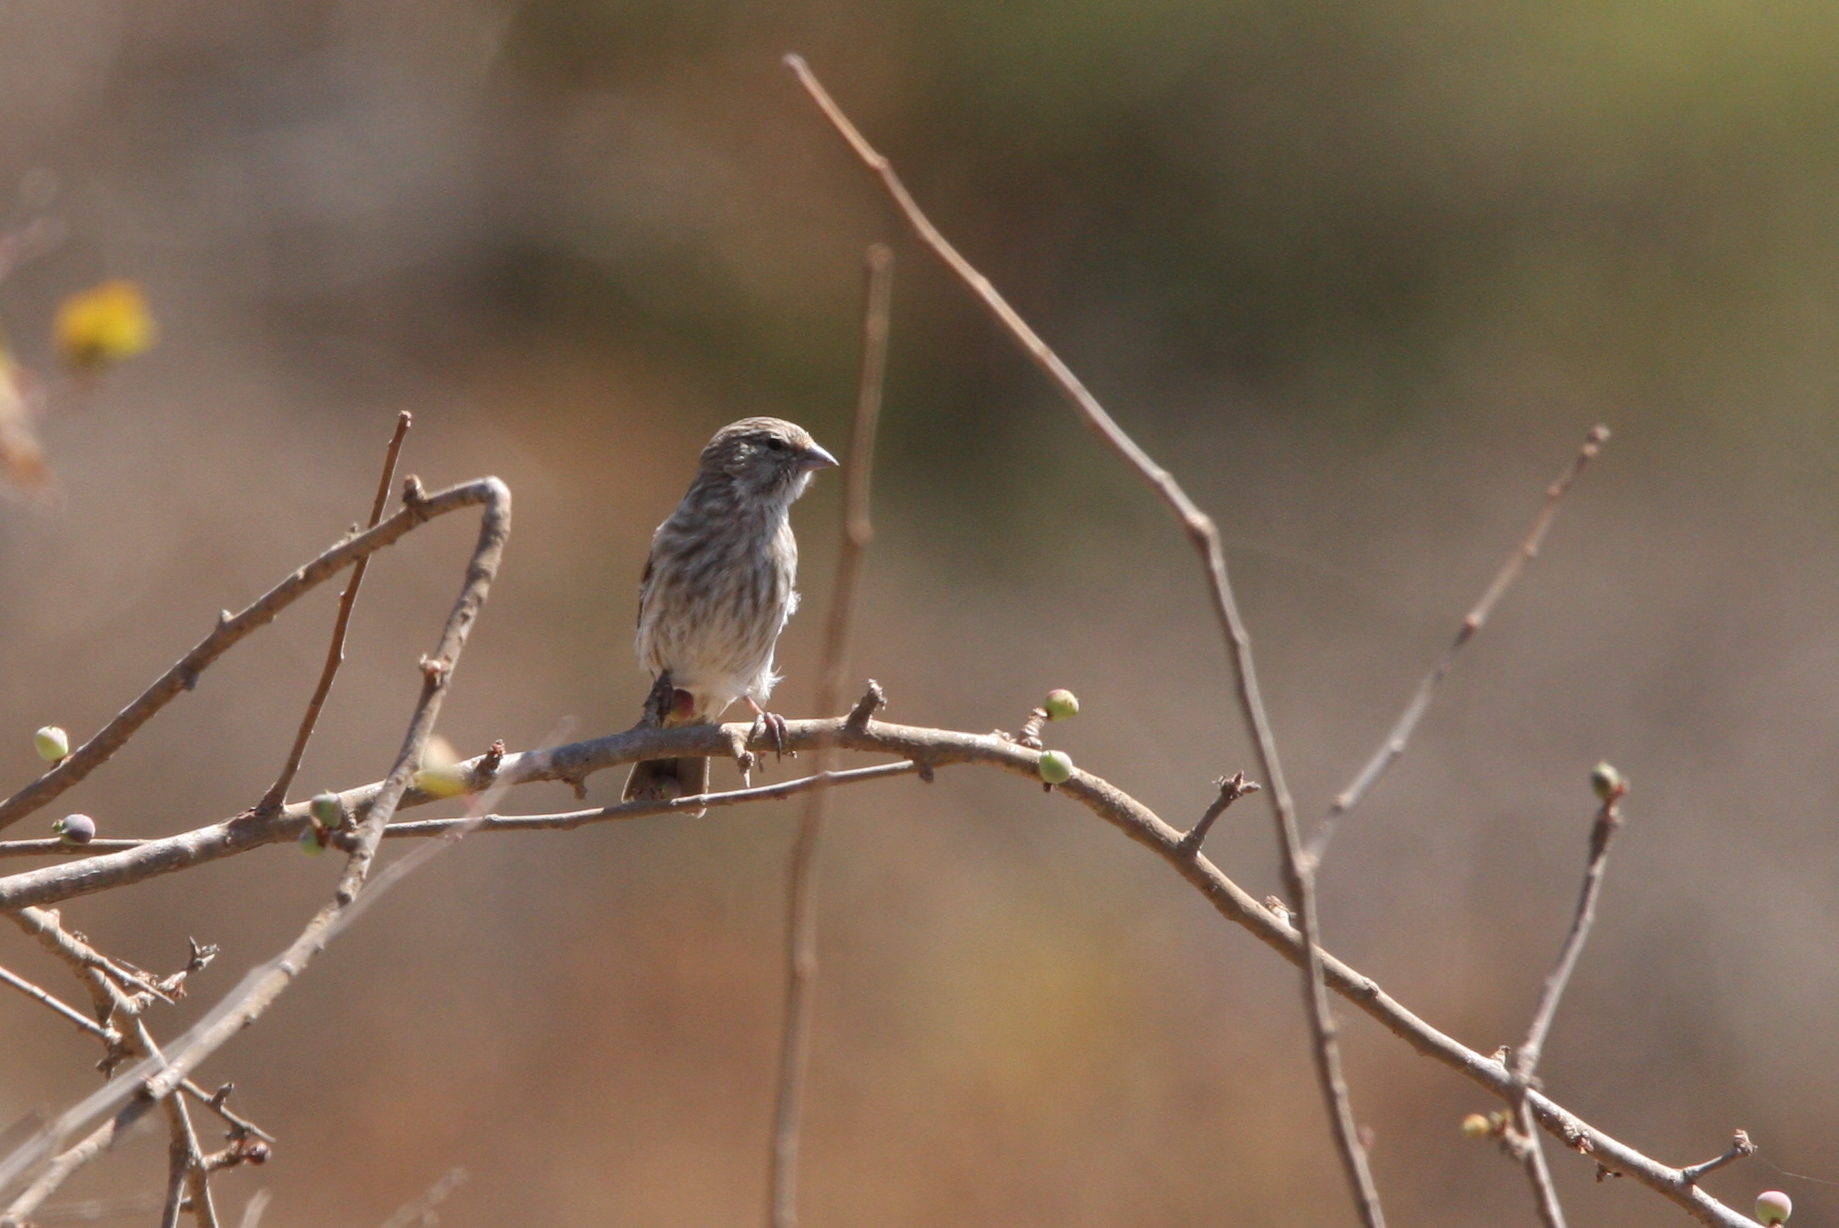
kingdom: Animalia
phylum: Chordata
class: Aves
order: Passeriformes
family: Fringillidae
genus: Crithagra
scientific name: Crithagra menachensis
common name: Yemen serin
